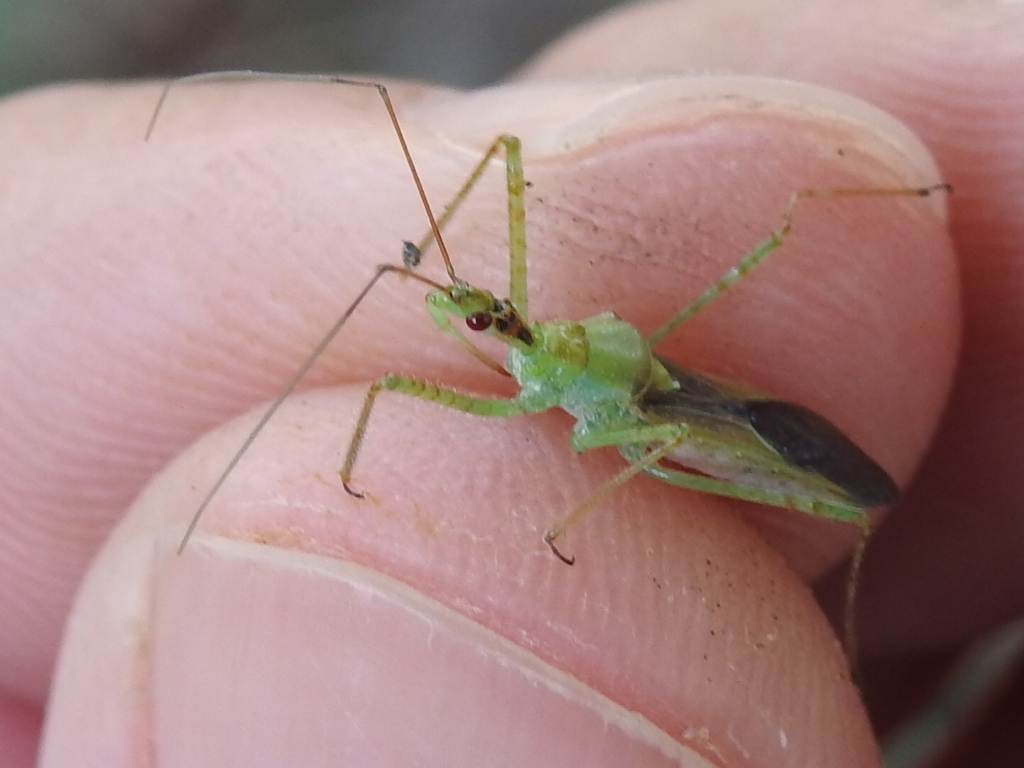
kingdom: Animalia
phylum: Arthropoda
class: Insecta
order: Hemiptera
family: Reduviidae
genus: Zelus
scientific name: Zelus renardii
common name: Assassin bug
